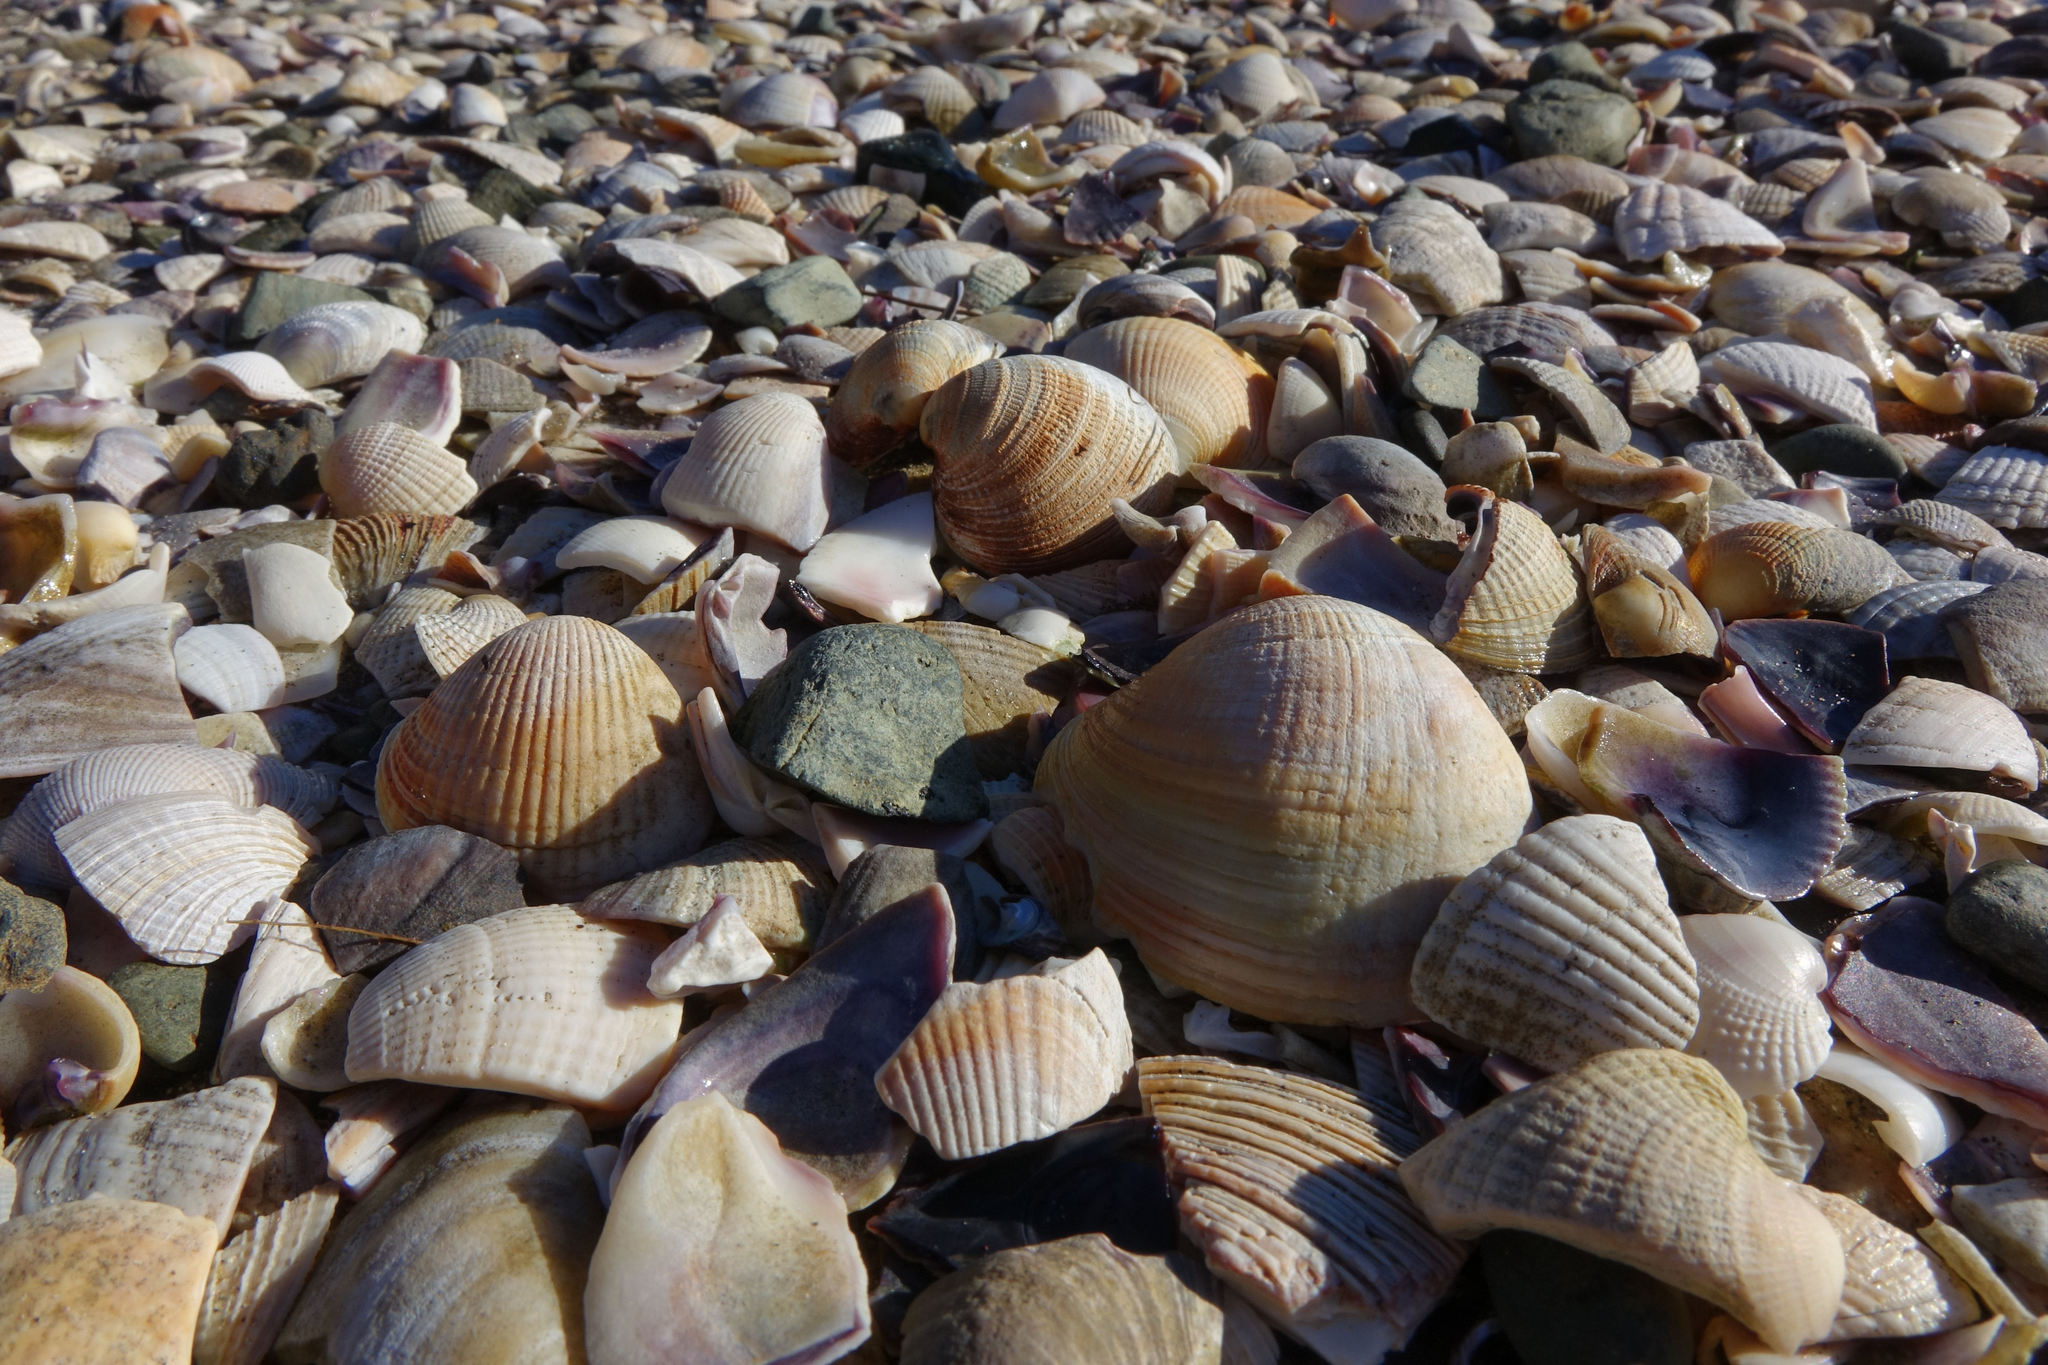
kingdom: Animalia
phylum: Mollusca
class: Bivalvia
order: Venerida
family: Veneridae
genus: Austrovenus
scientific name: Austrovenus stutchburyi
